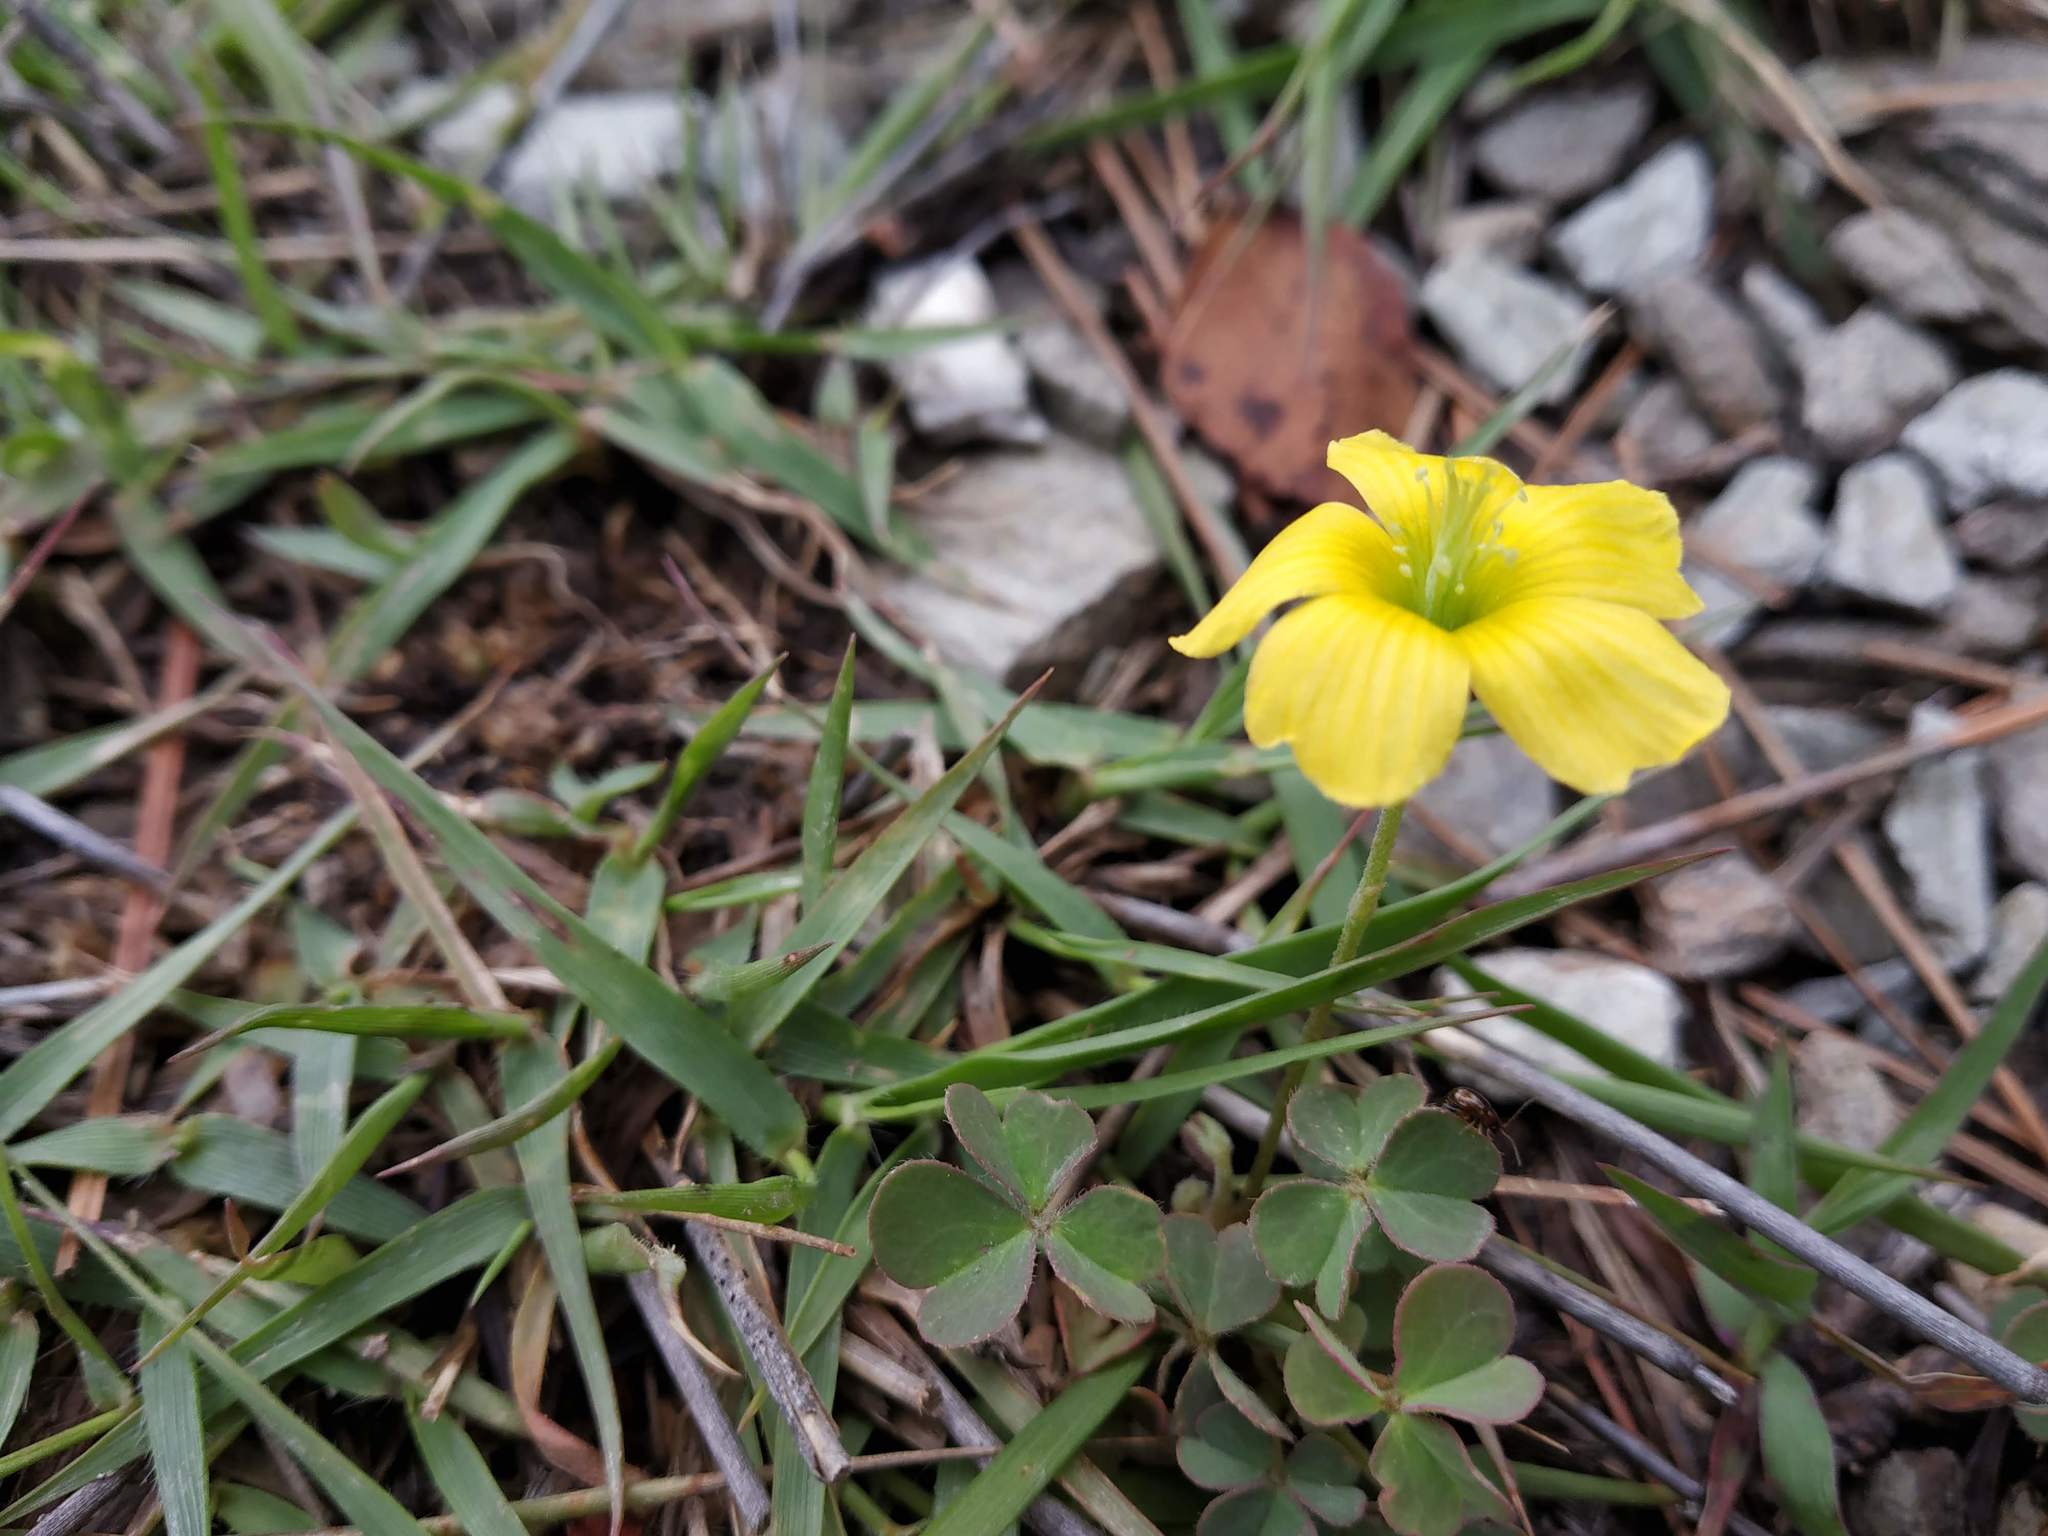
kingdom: Plantae
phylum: Tracheophyta
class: Magnoliopsida
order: Oxalidales
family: Oxalidaceae
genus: Oxalis
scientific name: Oxalis corniculata
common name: Procumbent yellow-sorrel
